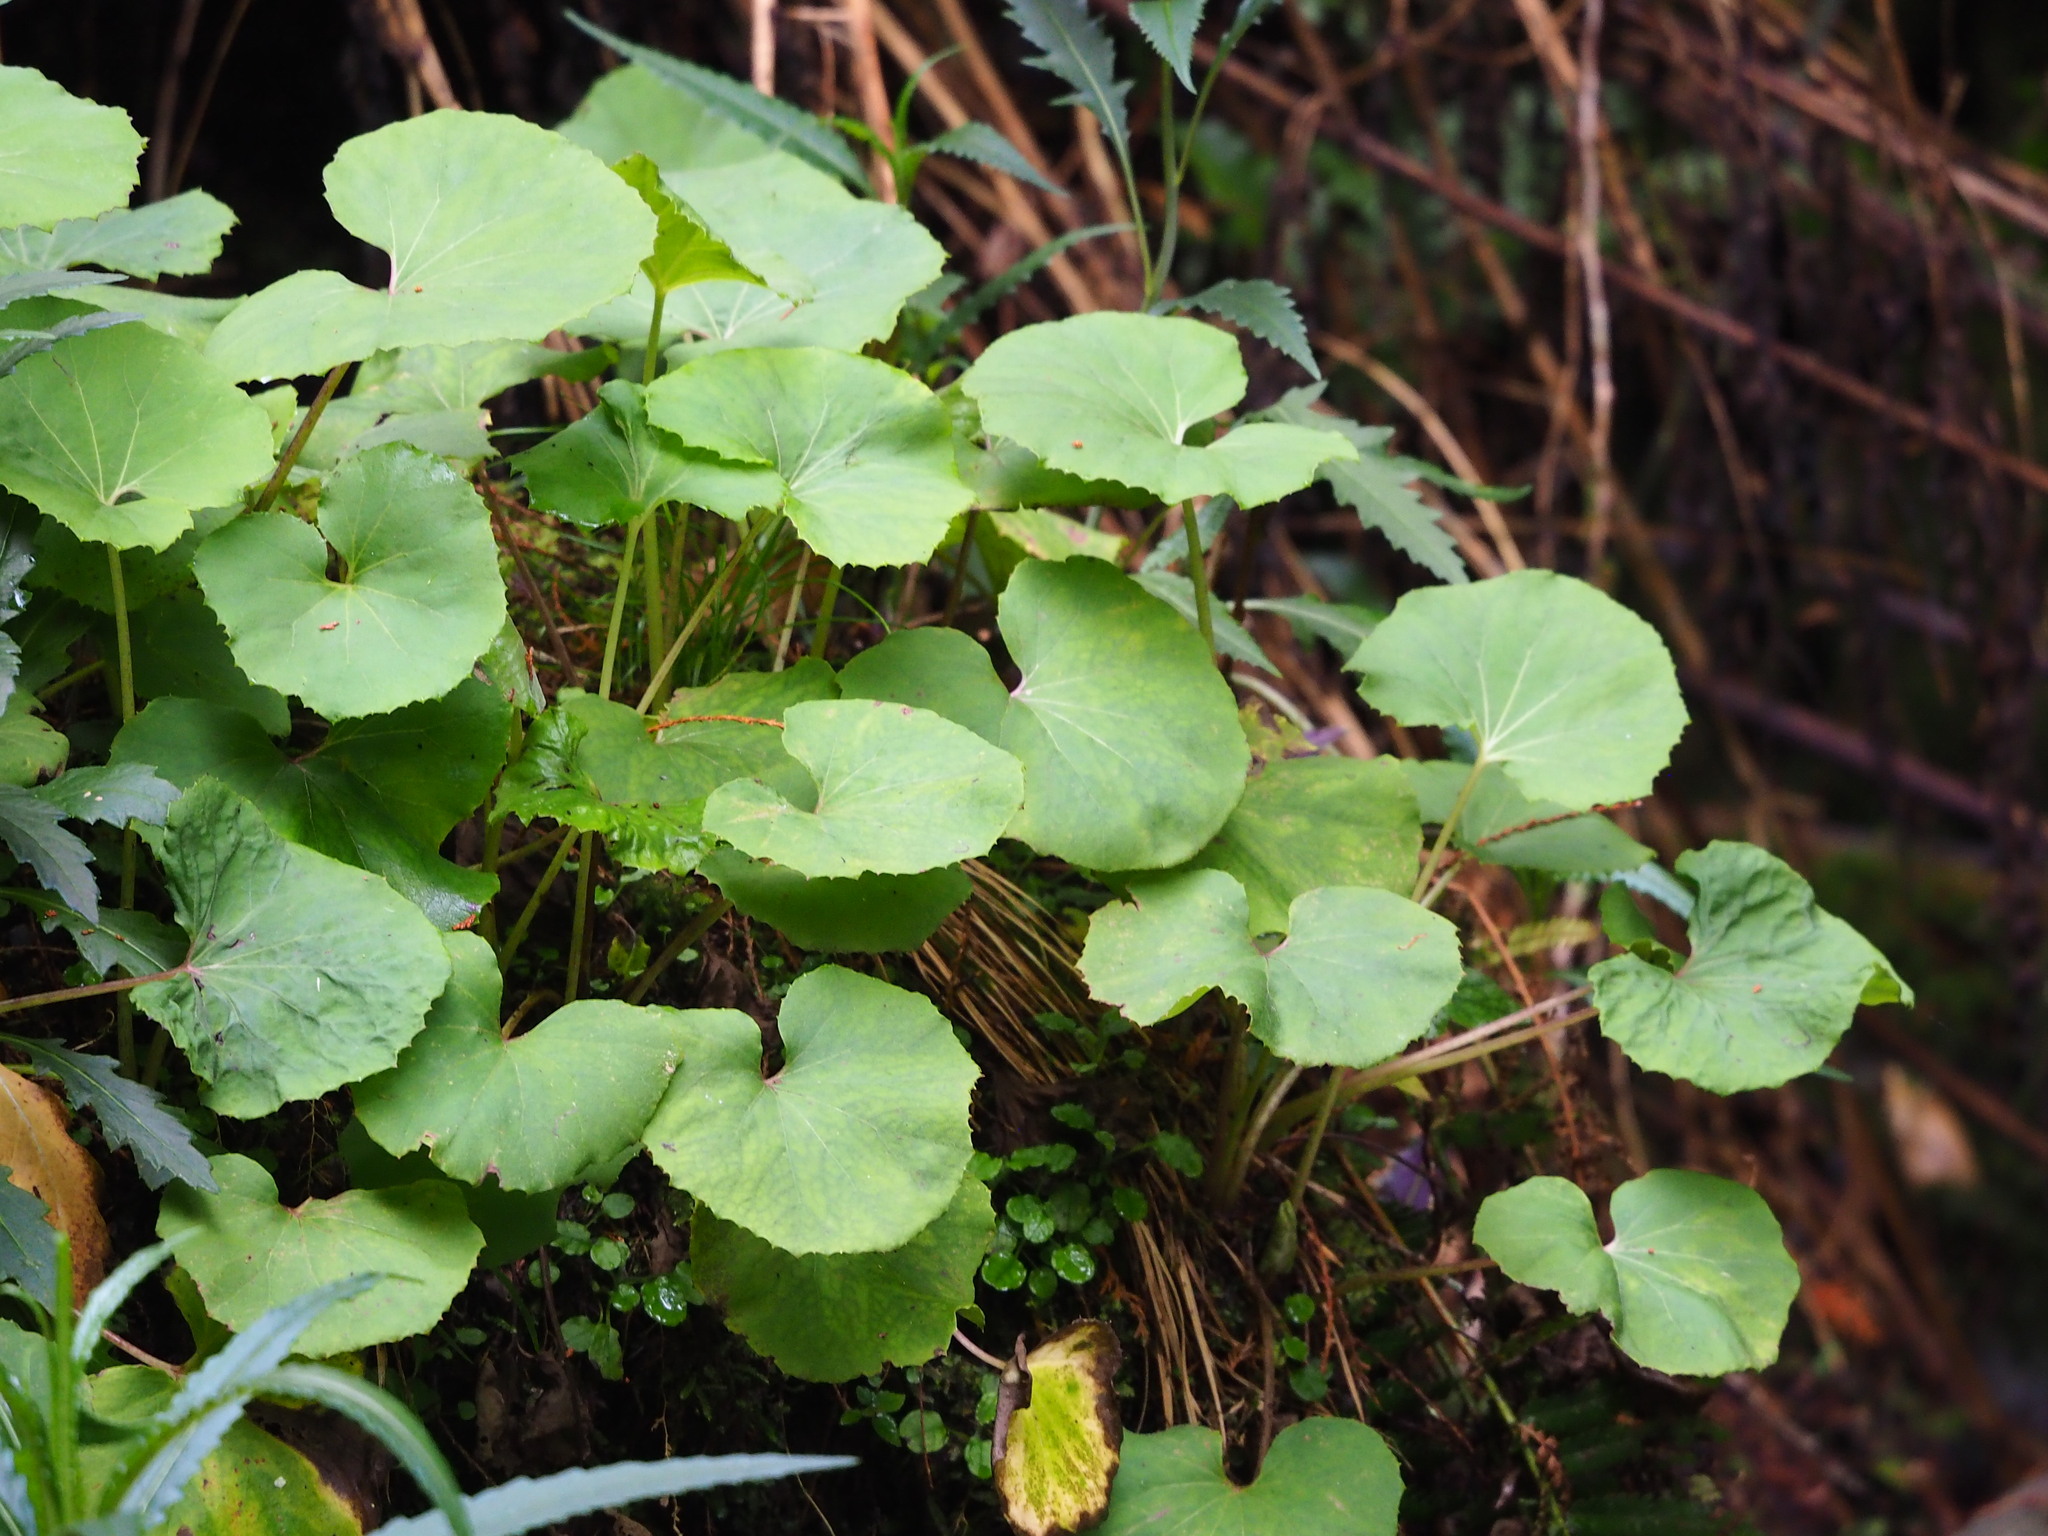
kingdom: Plantae
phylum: Tracheophyta
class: Magnoliopsida
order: Asterales
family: Asteraceae
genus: Petasites
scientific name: Petasites formosanus
